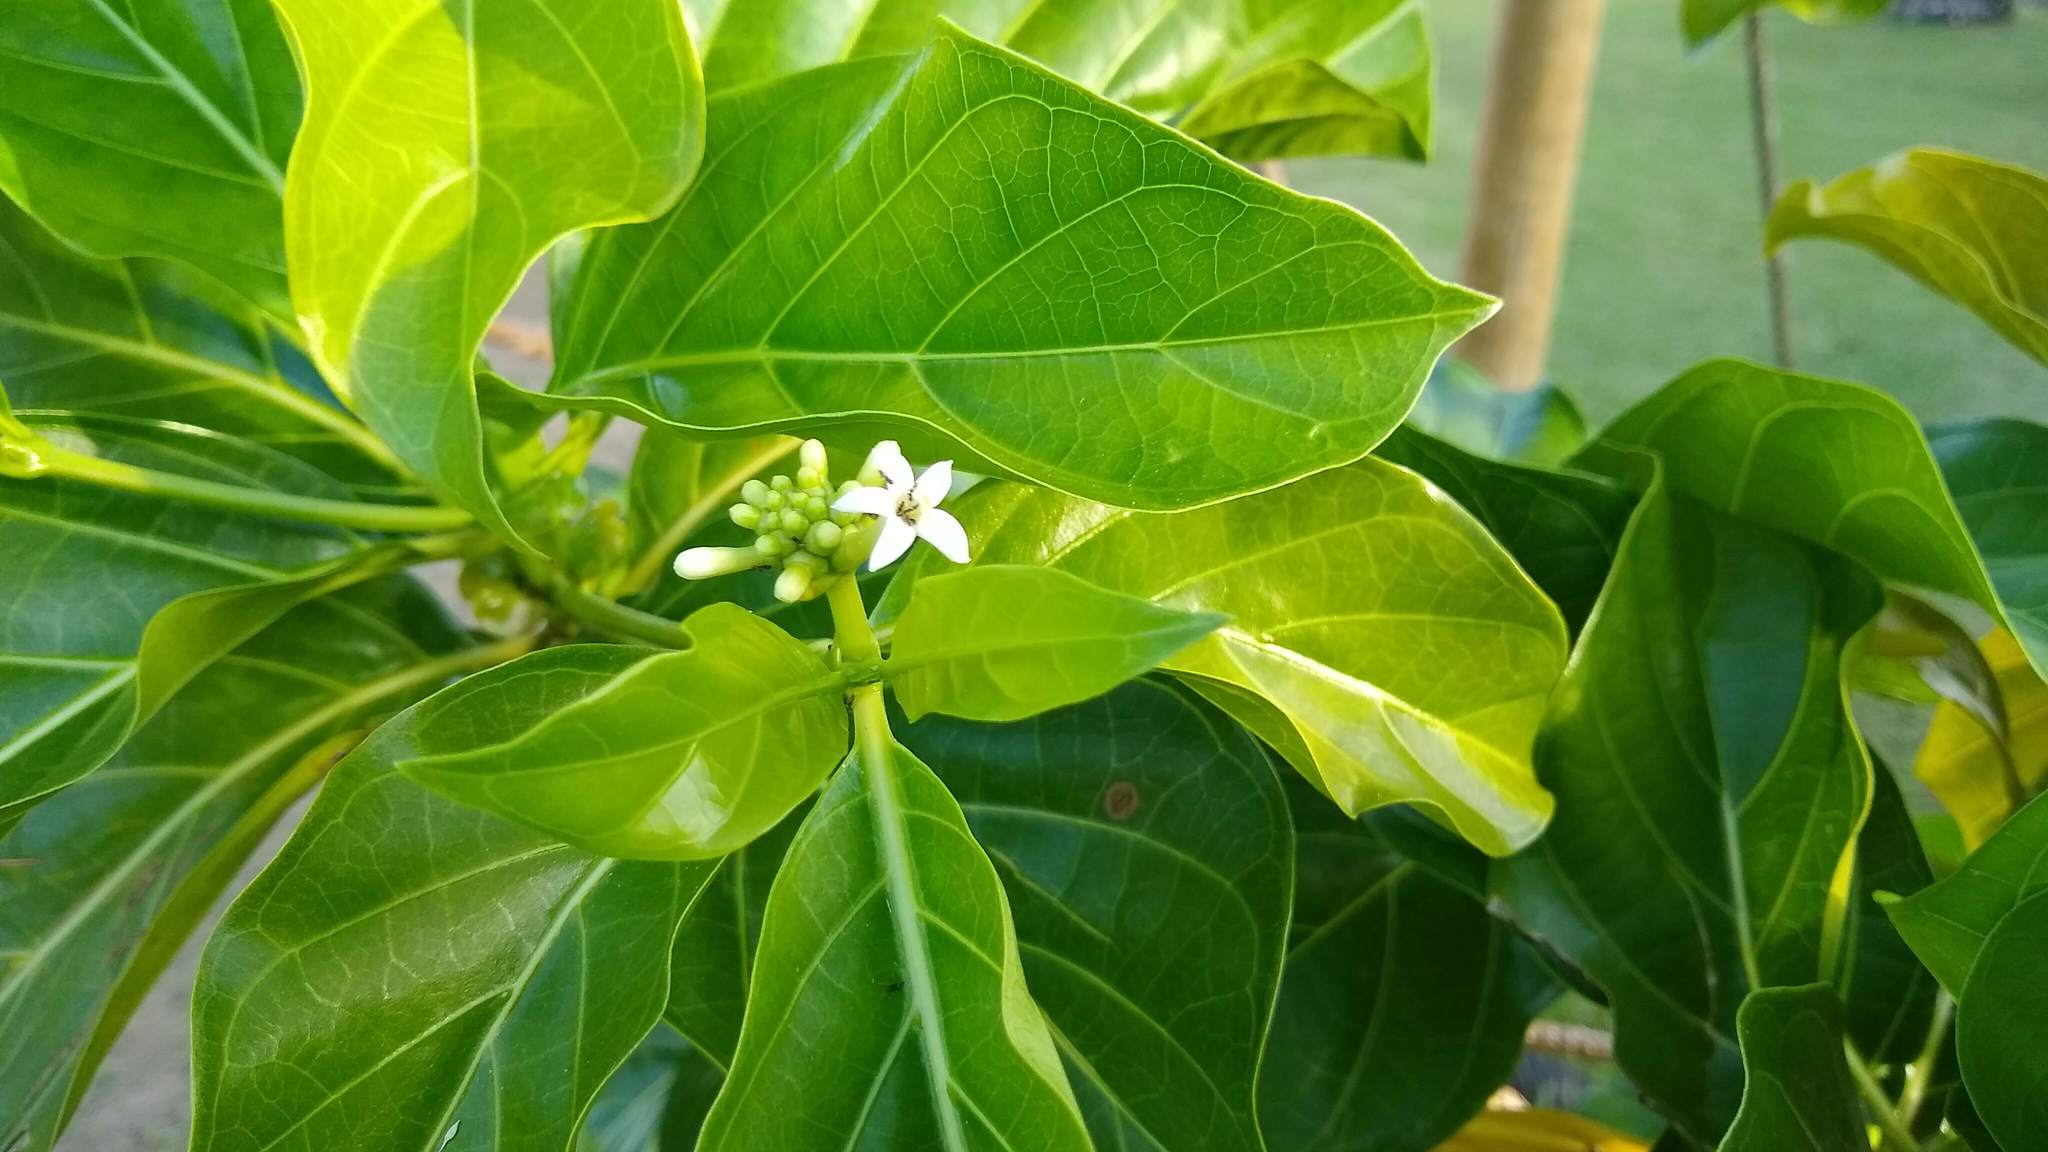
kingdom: Plantae
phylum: Tracheophyta
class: Magnoliopsida
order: Gentianales
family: Rubiaceae
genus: Morinda
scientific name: Morinda citrifolia
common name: Indian-mulberry
